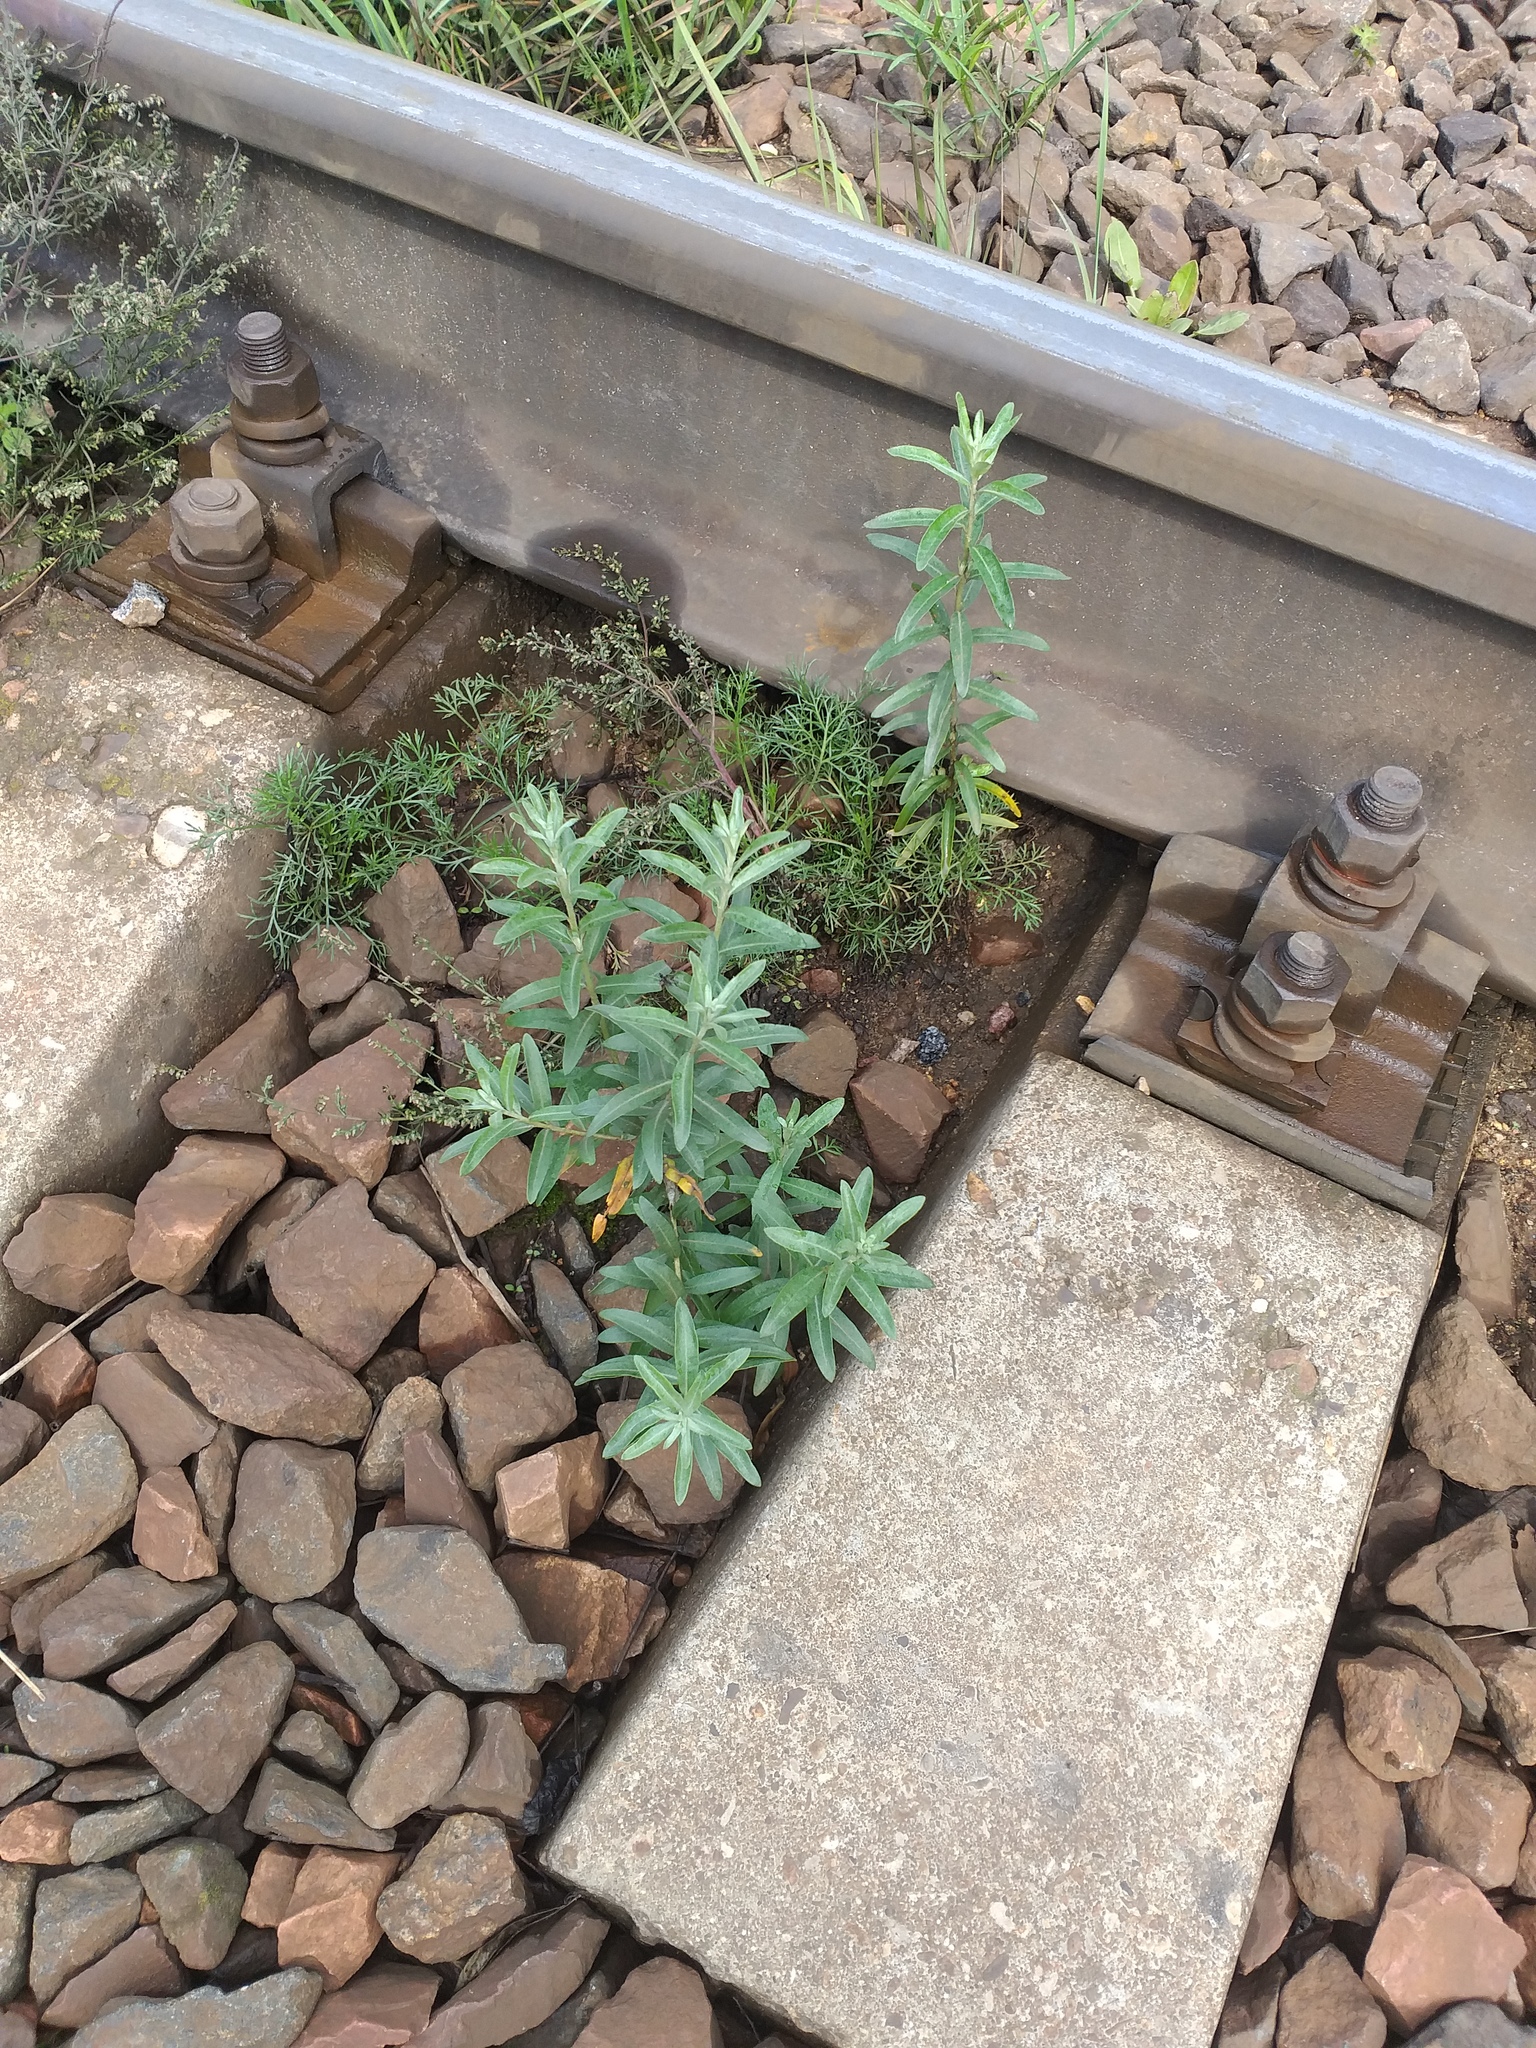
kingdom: Plantae
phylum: Tracheophyta
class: Magnoliopsida
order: Rosales
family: Elaeagnaceae
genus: Hippophae
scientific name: Hippophae rhamnoides
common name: Sea-buckthorn
